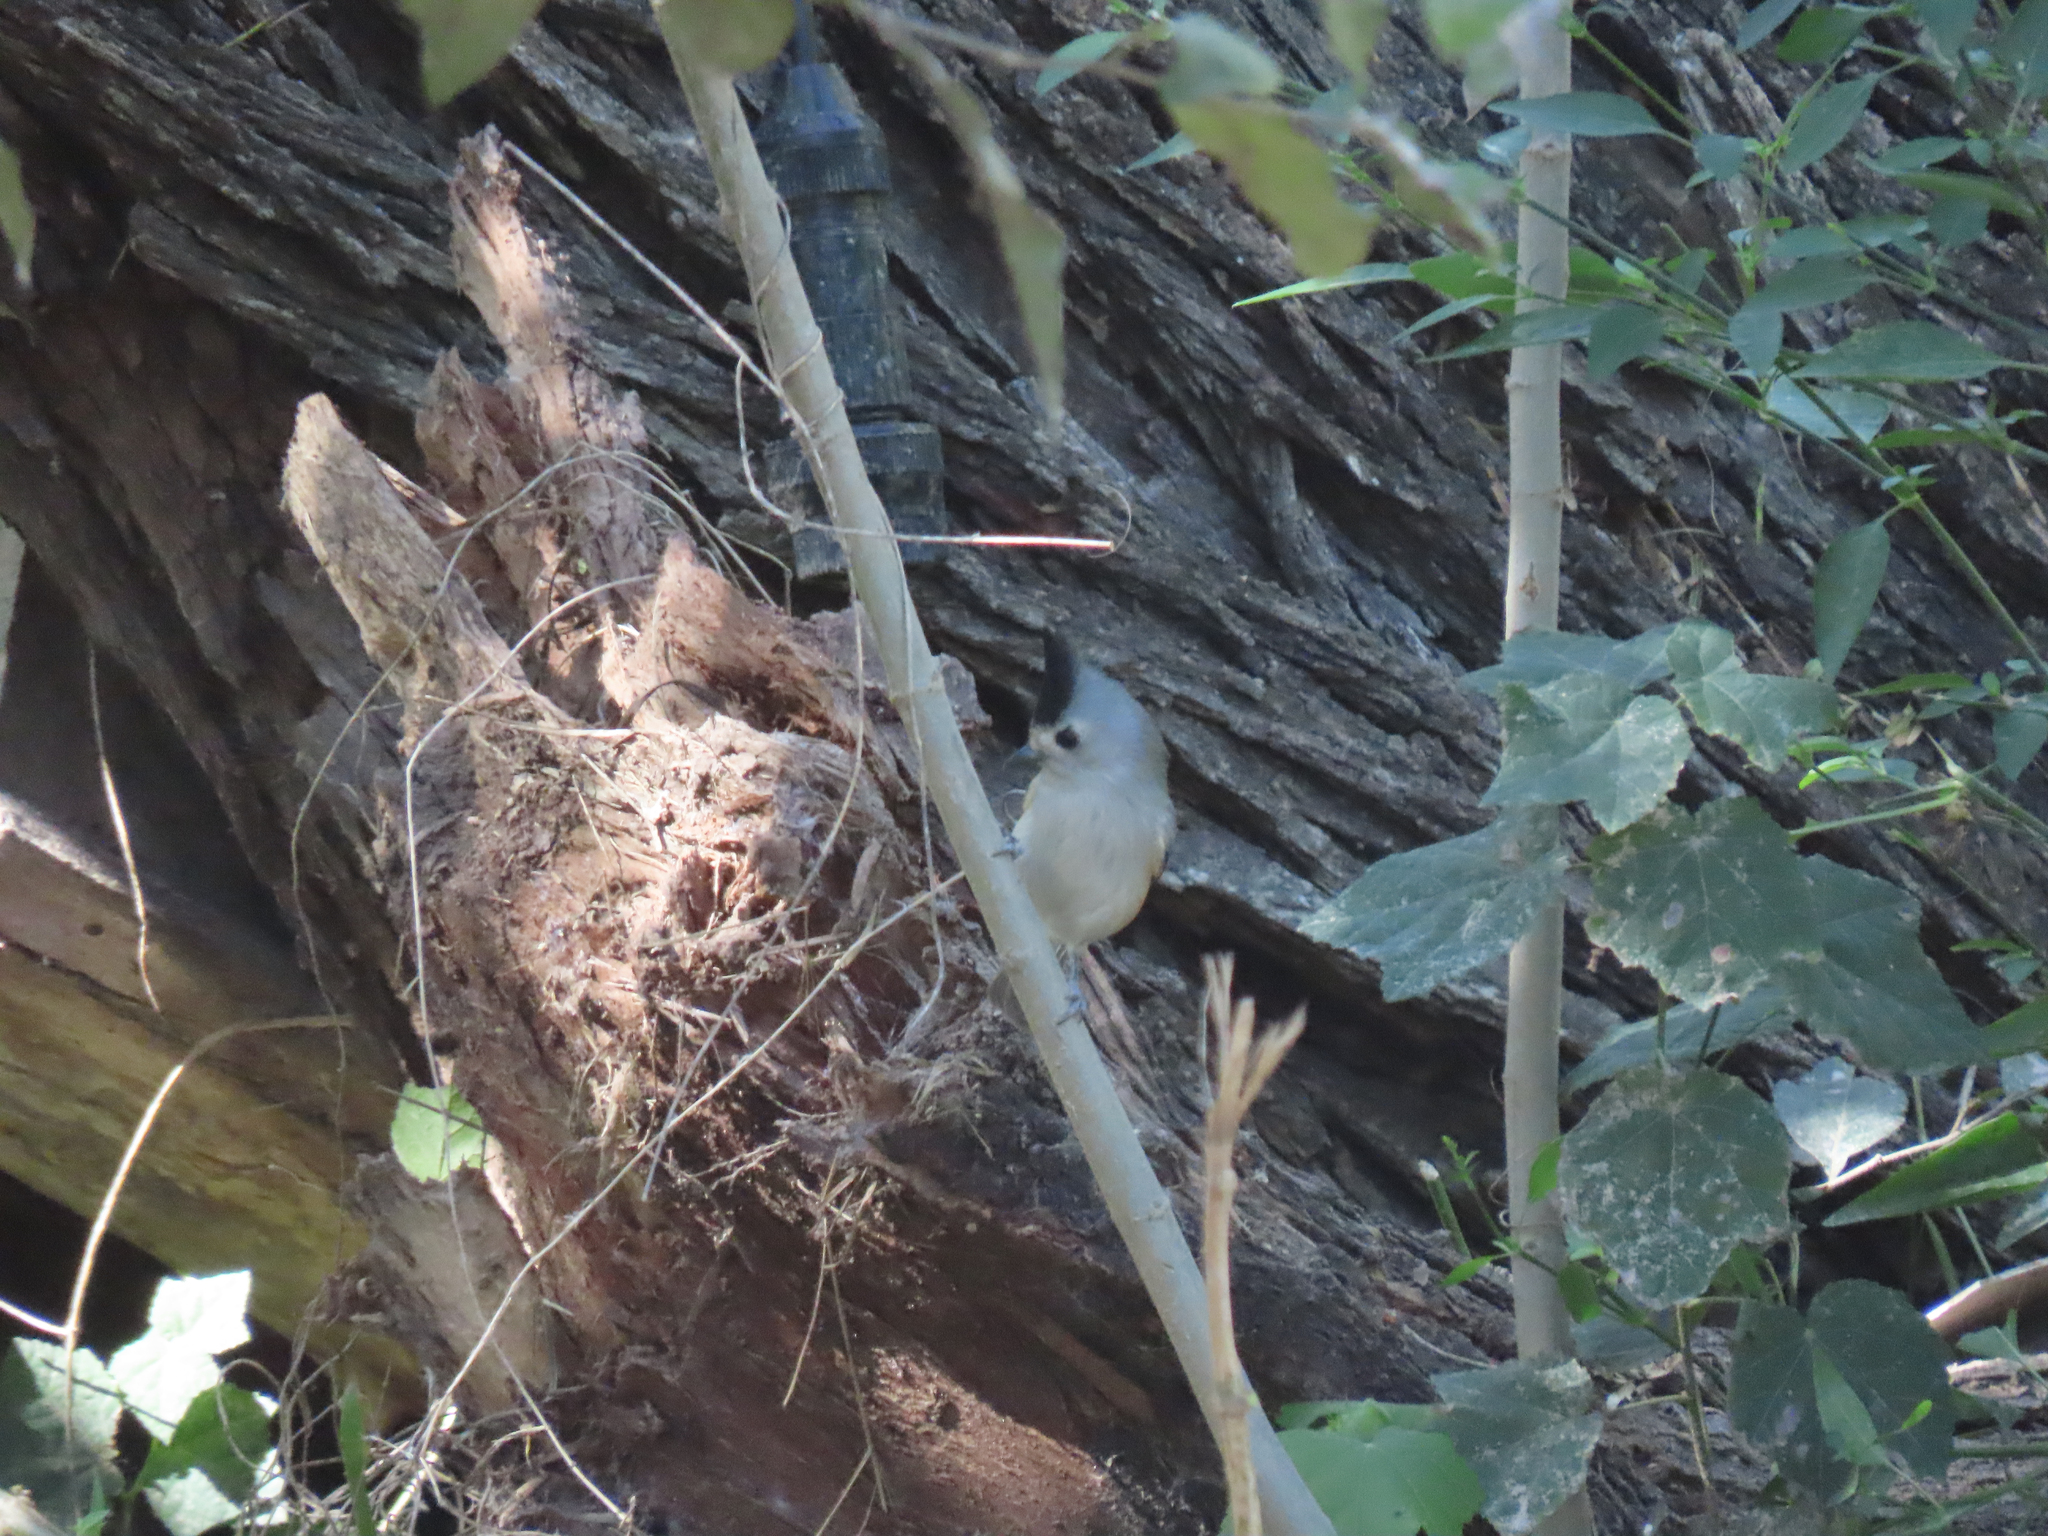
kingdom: Animalia
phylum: Chordata
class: Aves
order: Passeriformes
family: Paridae
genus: Baeolophus
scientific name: Baeolophus atricristatus
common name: Black-crested titmouse
